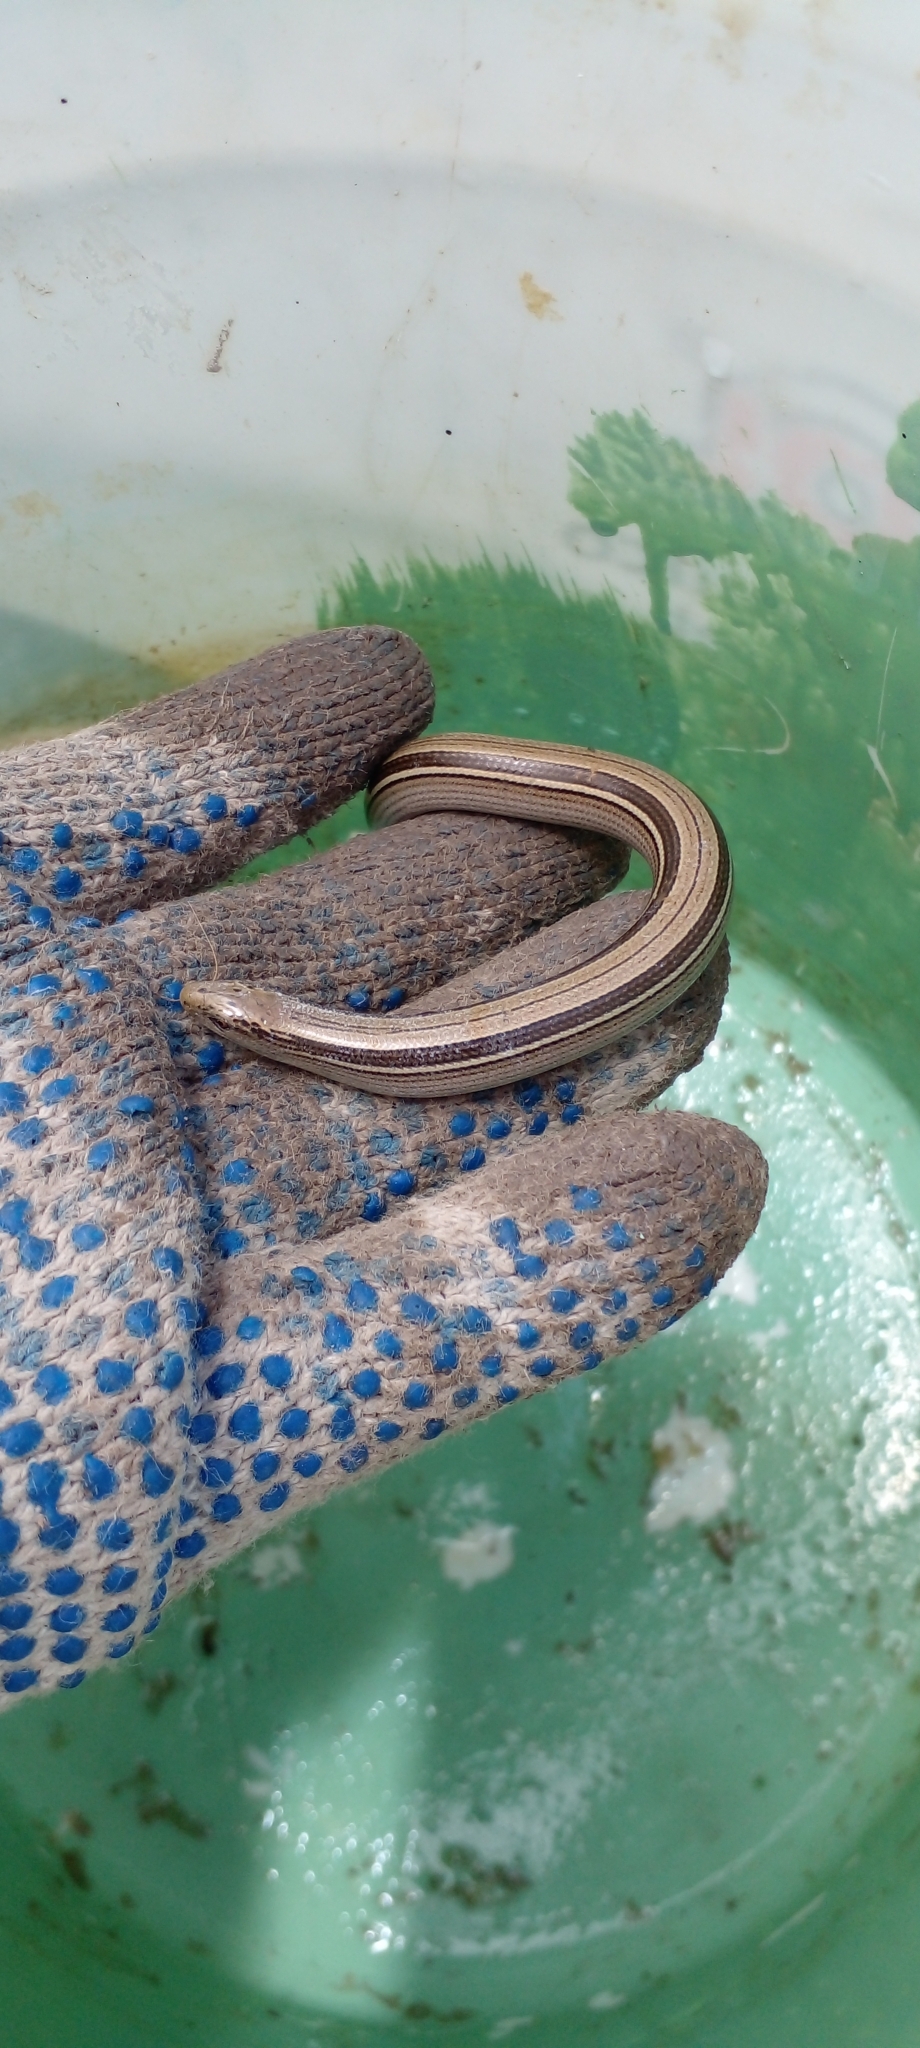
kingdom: Animalia
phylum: Chordata
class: Squamata
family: Diploglossidae
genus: Ophiodes
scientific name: Ophiodes vertebralis
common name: Jointed worm lizard
